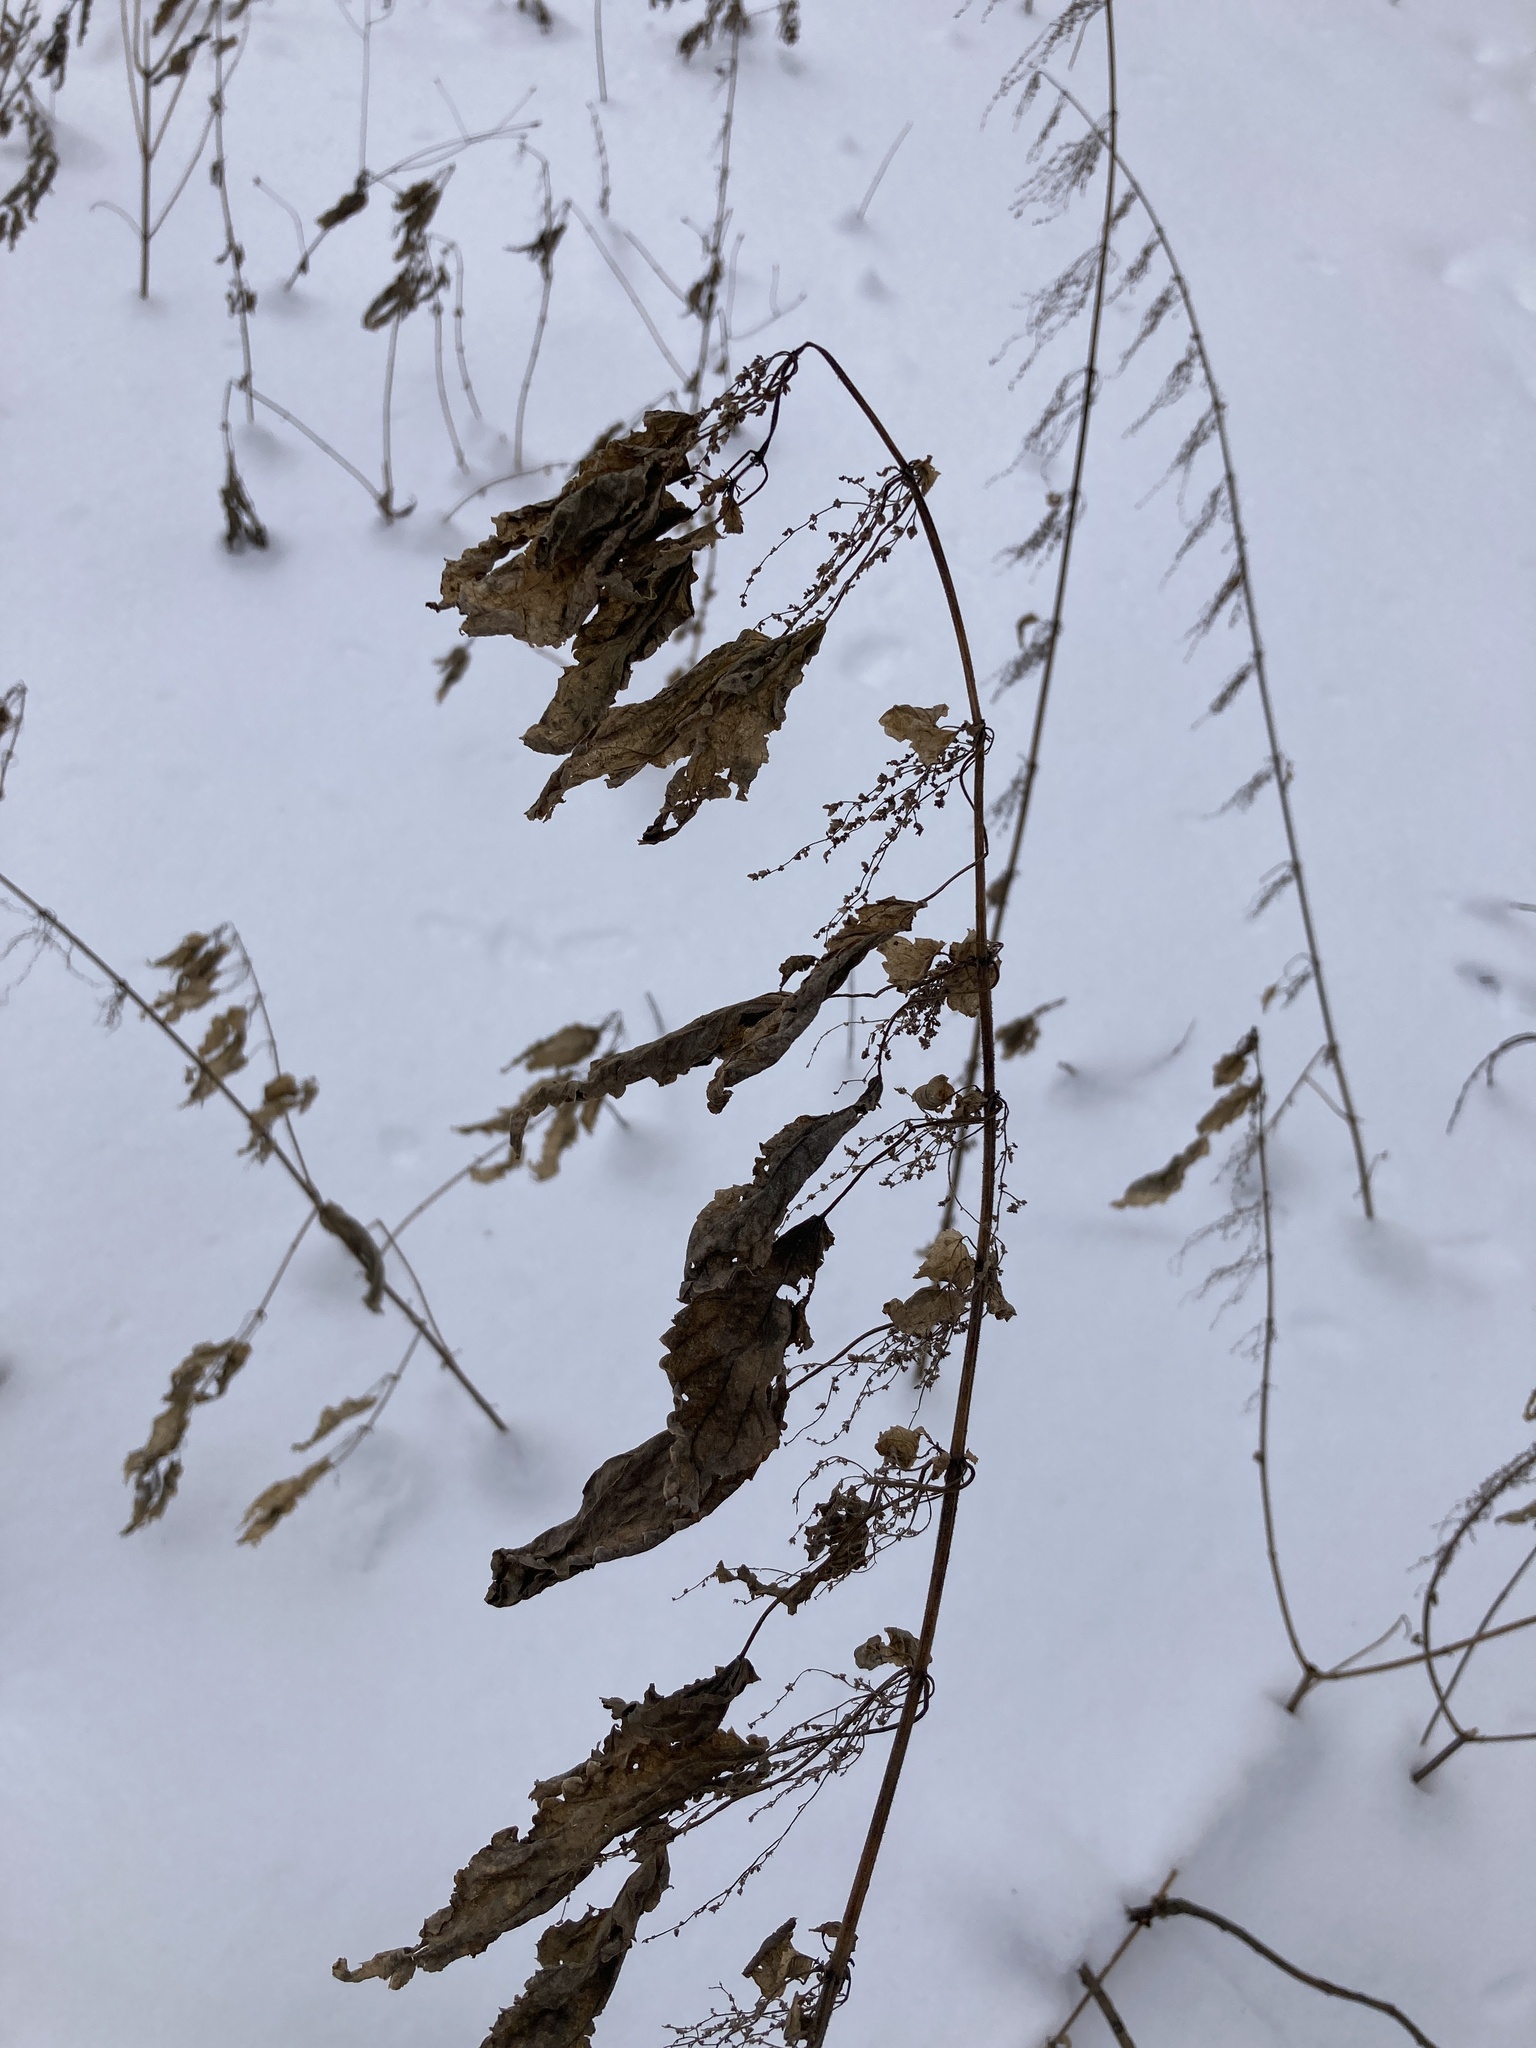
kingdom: Plantae
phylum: Tracheophyta
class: Magnoliopsida
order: Rosales
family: Urticaceae
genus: Urtica
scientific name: Urtica dioica
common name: Common nettle
